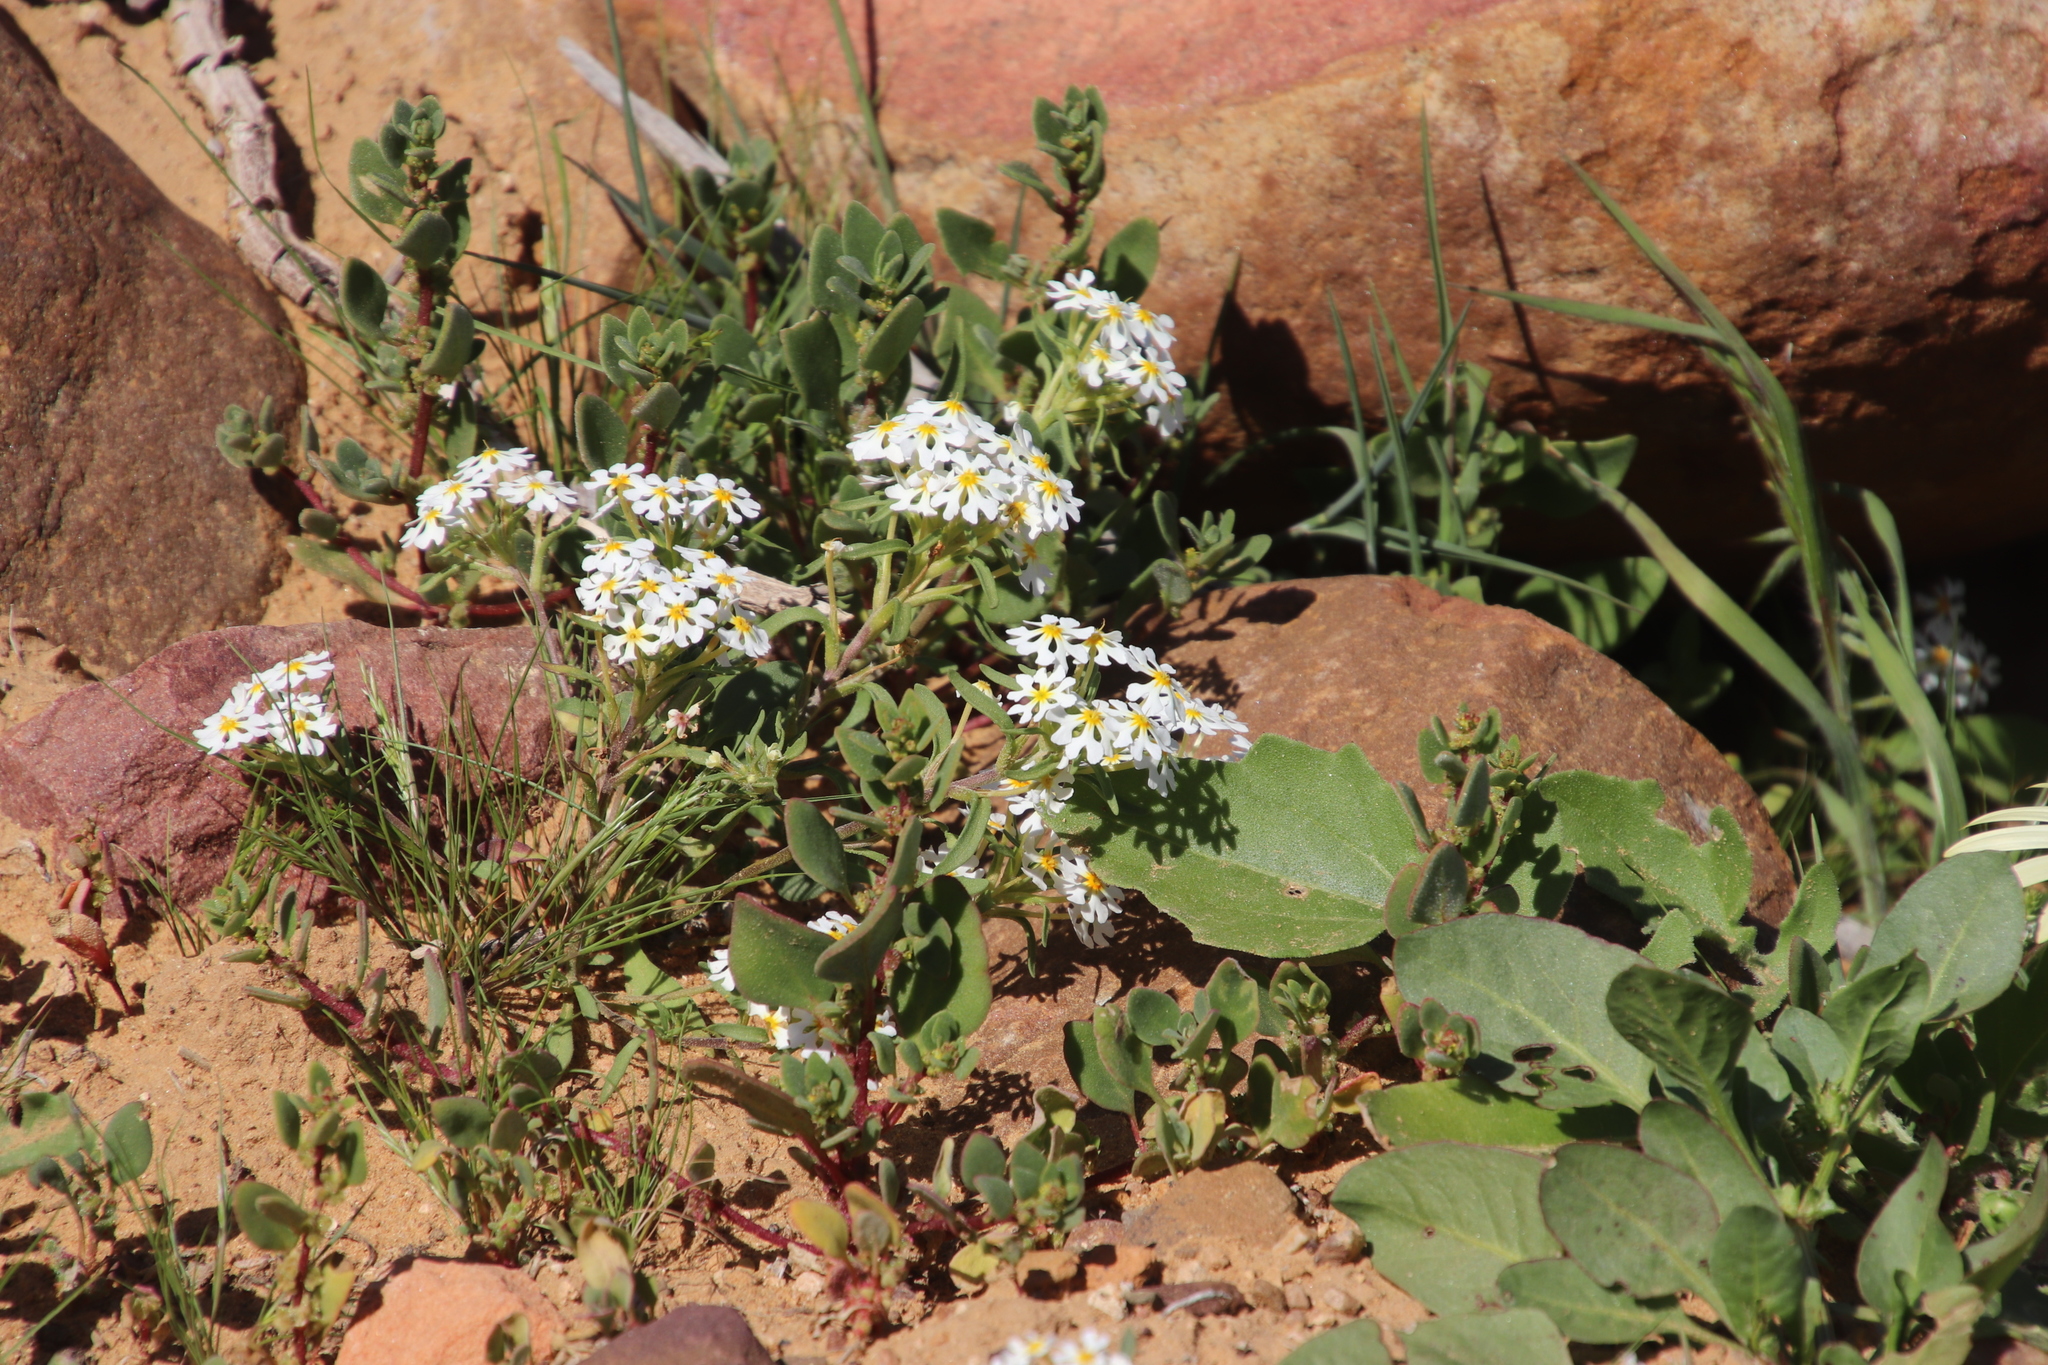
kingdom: Plantae
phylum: Tracheophyta
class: Magnoliopsida
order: Lamiales
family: Scrophulariaceae
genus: Zaluzianskya
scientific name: Zaluzianskya affinis
